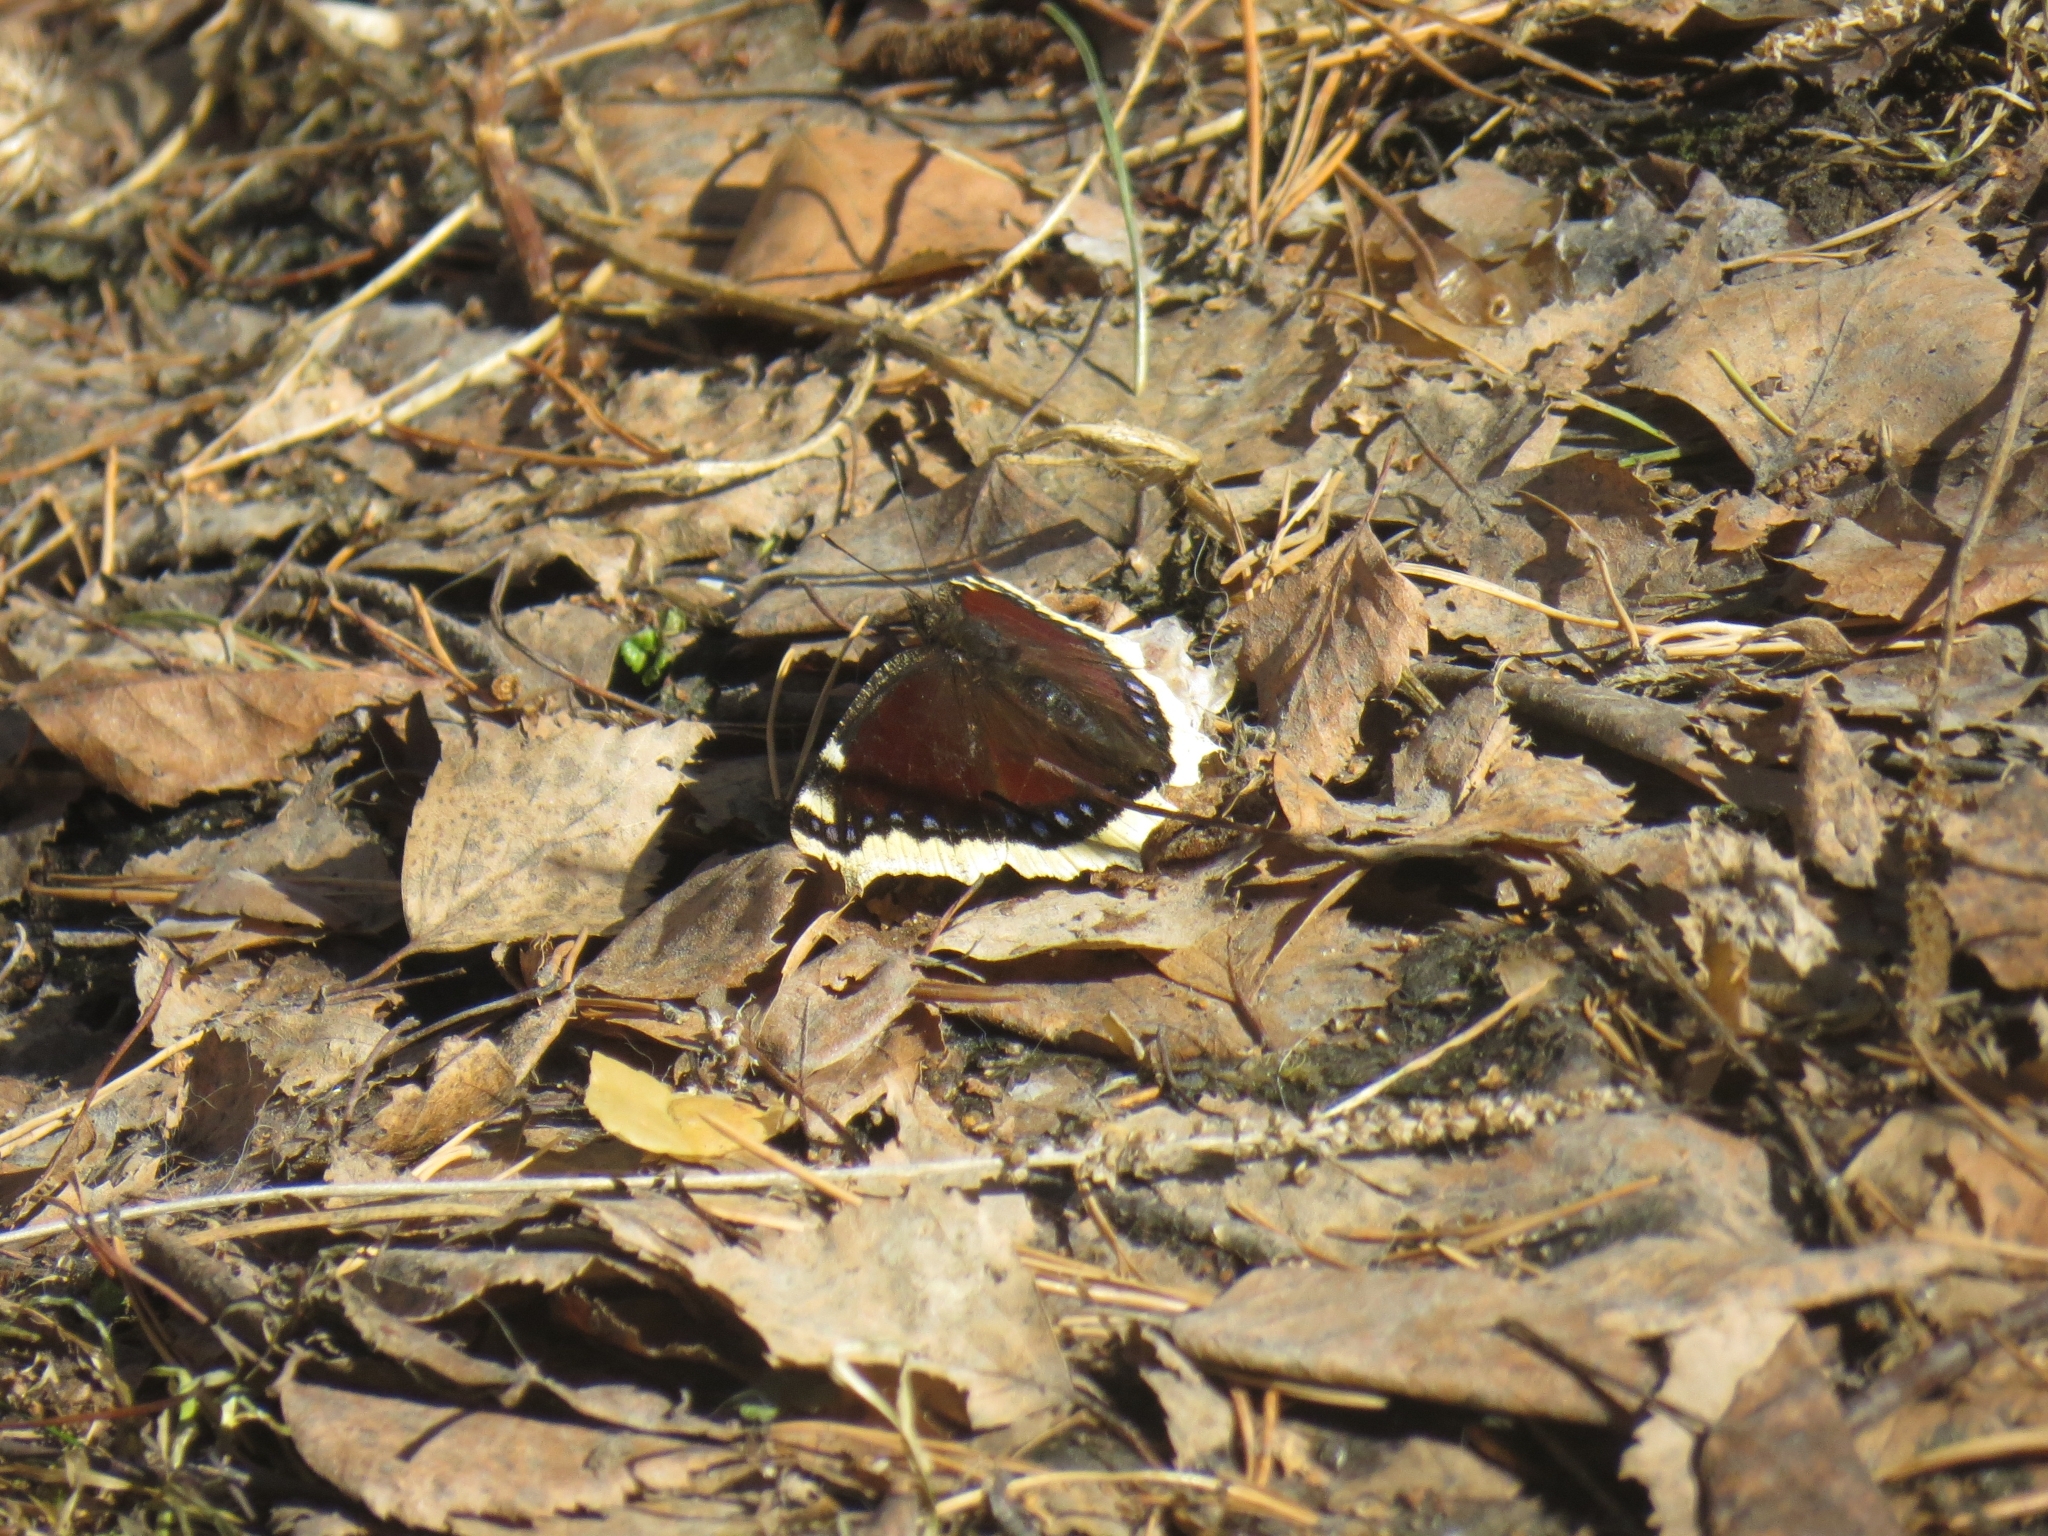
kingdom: Animalia
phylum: Arthropoda
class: Insecta
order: Lepidoptera
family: Nymphalidae
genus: Nymphalis
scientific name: Nymphalis antiopa
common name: Camberwell beauty
